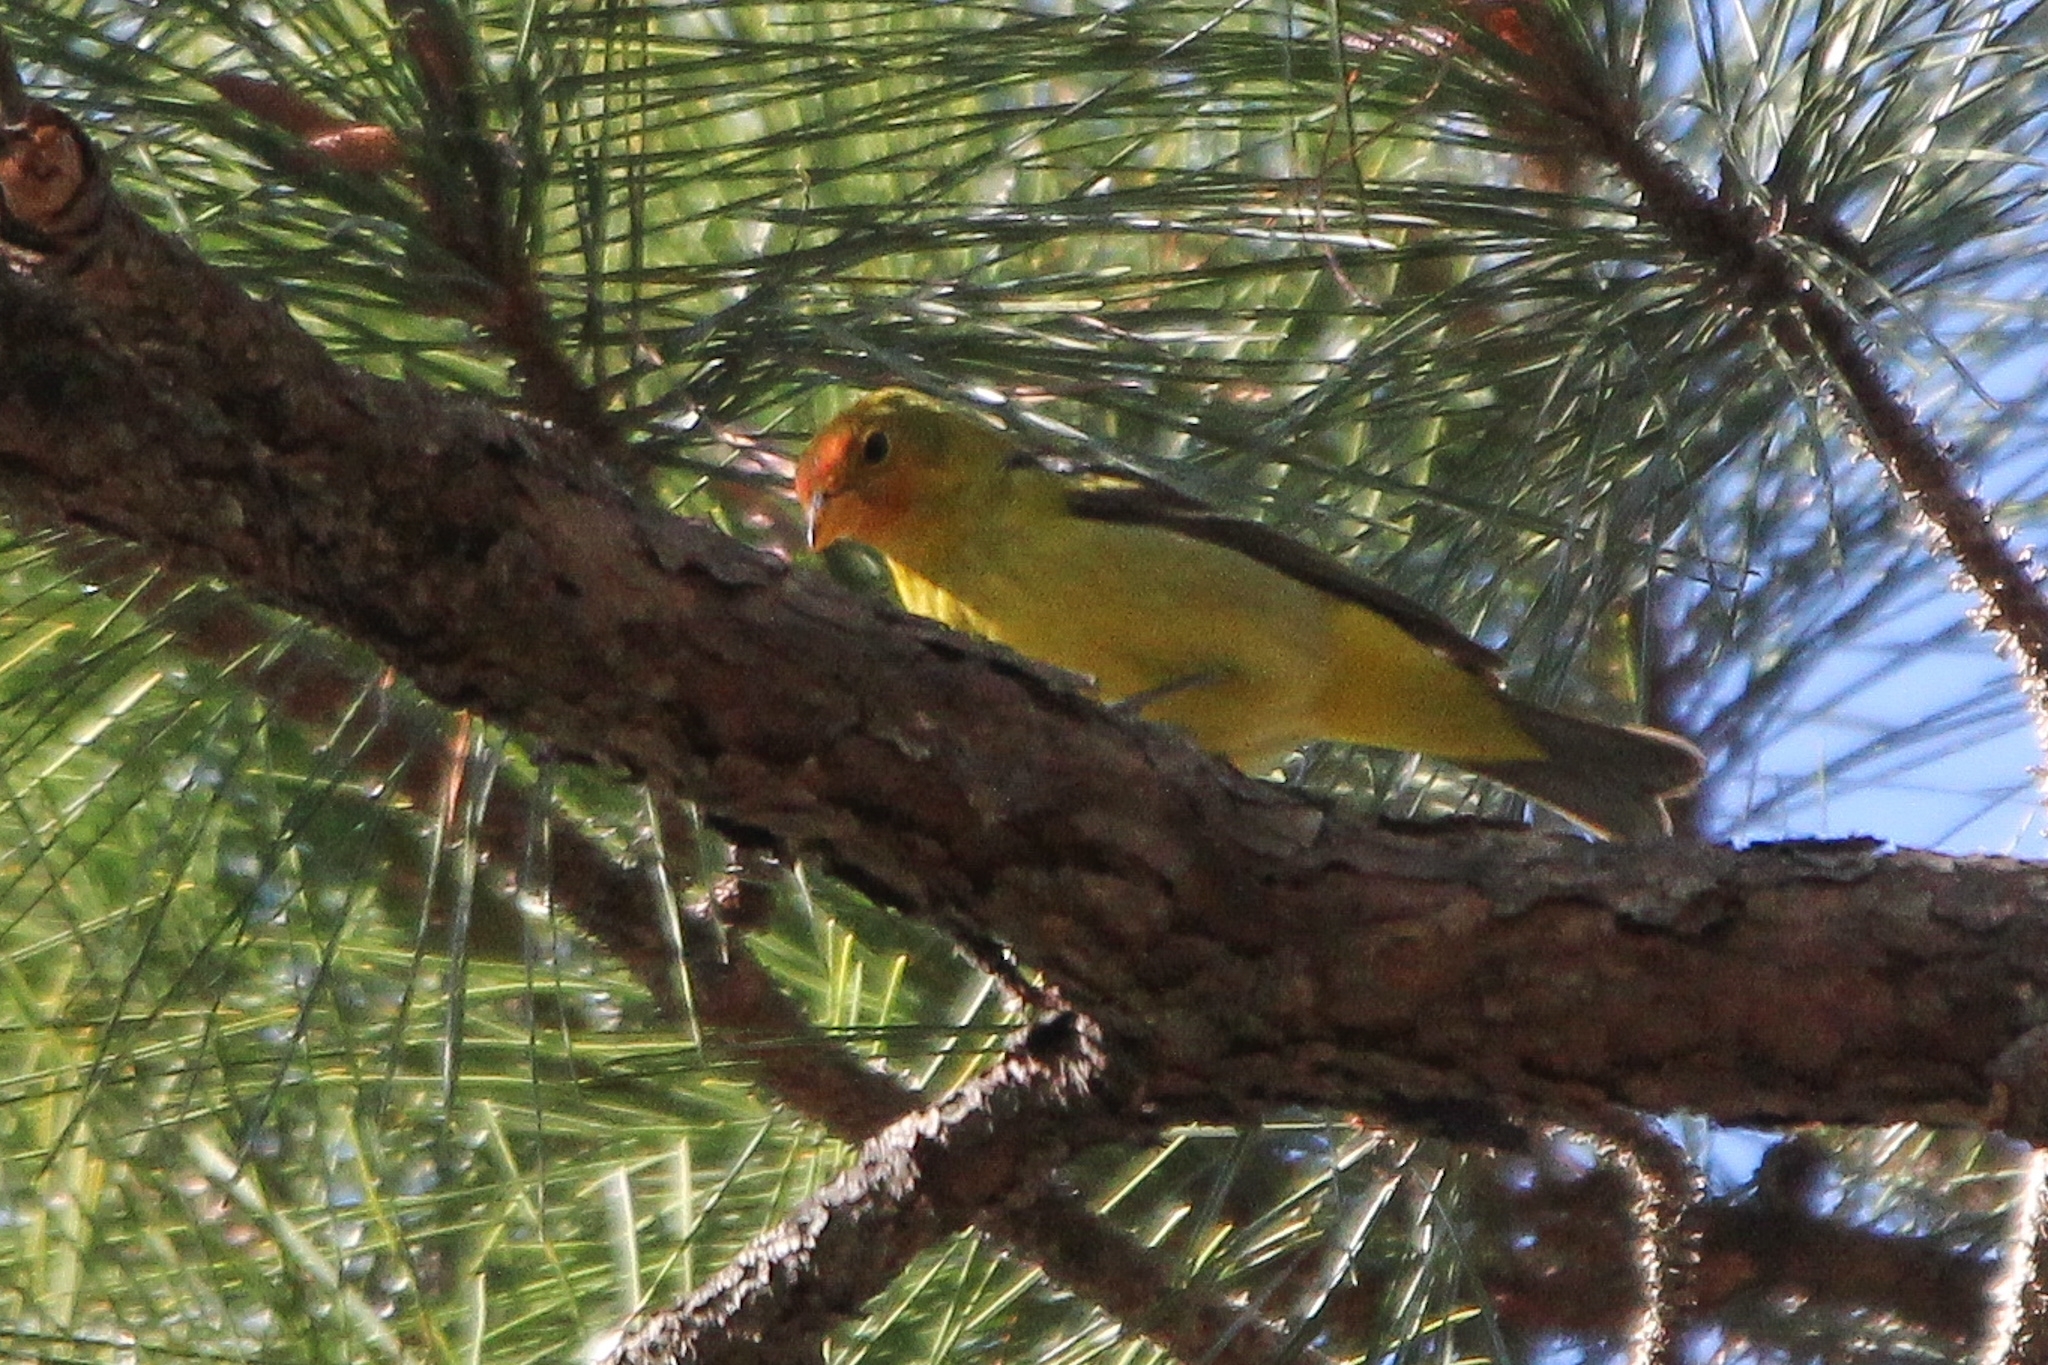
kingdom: Animalia
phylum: Chordata
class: Aves
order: Passeriformes
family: Cardinalidae
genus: Piranga
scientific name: Piranga ludoviciana
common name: Western tanager
